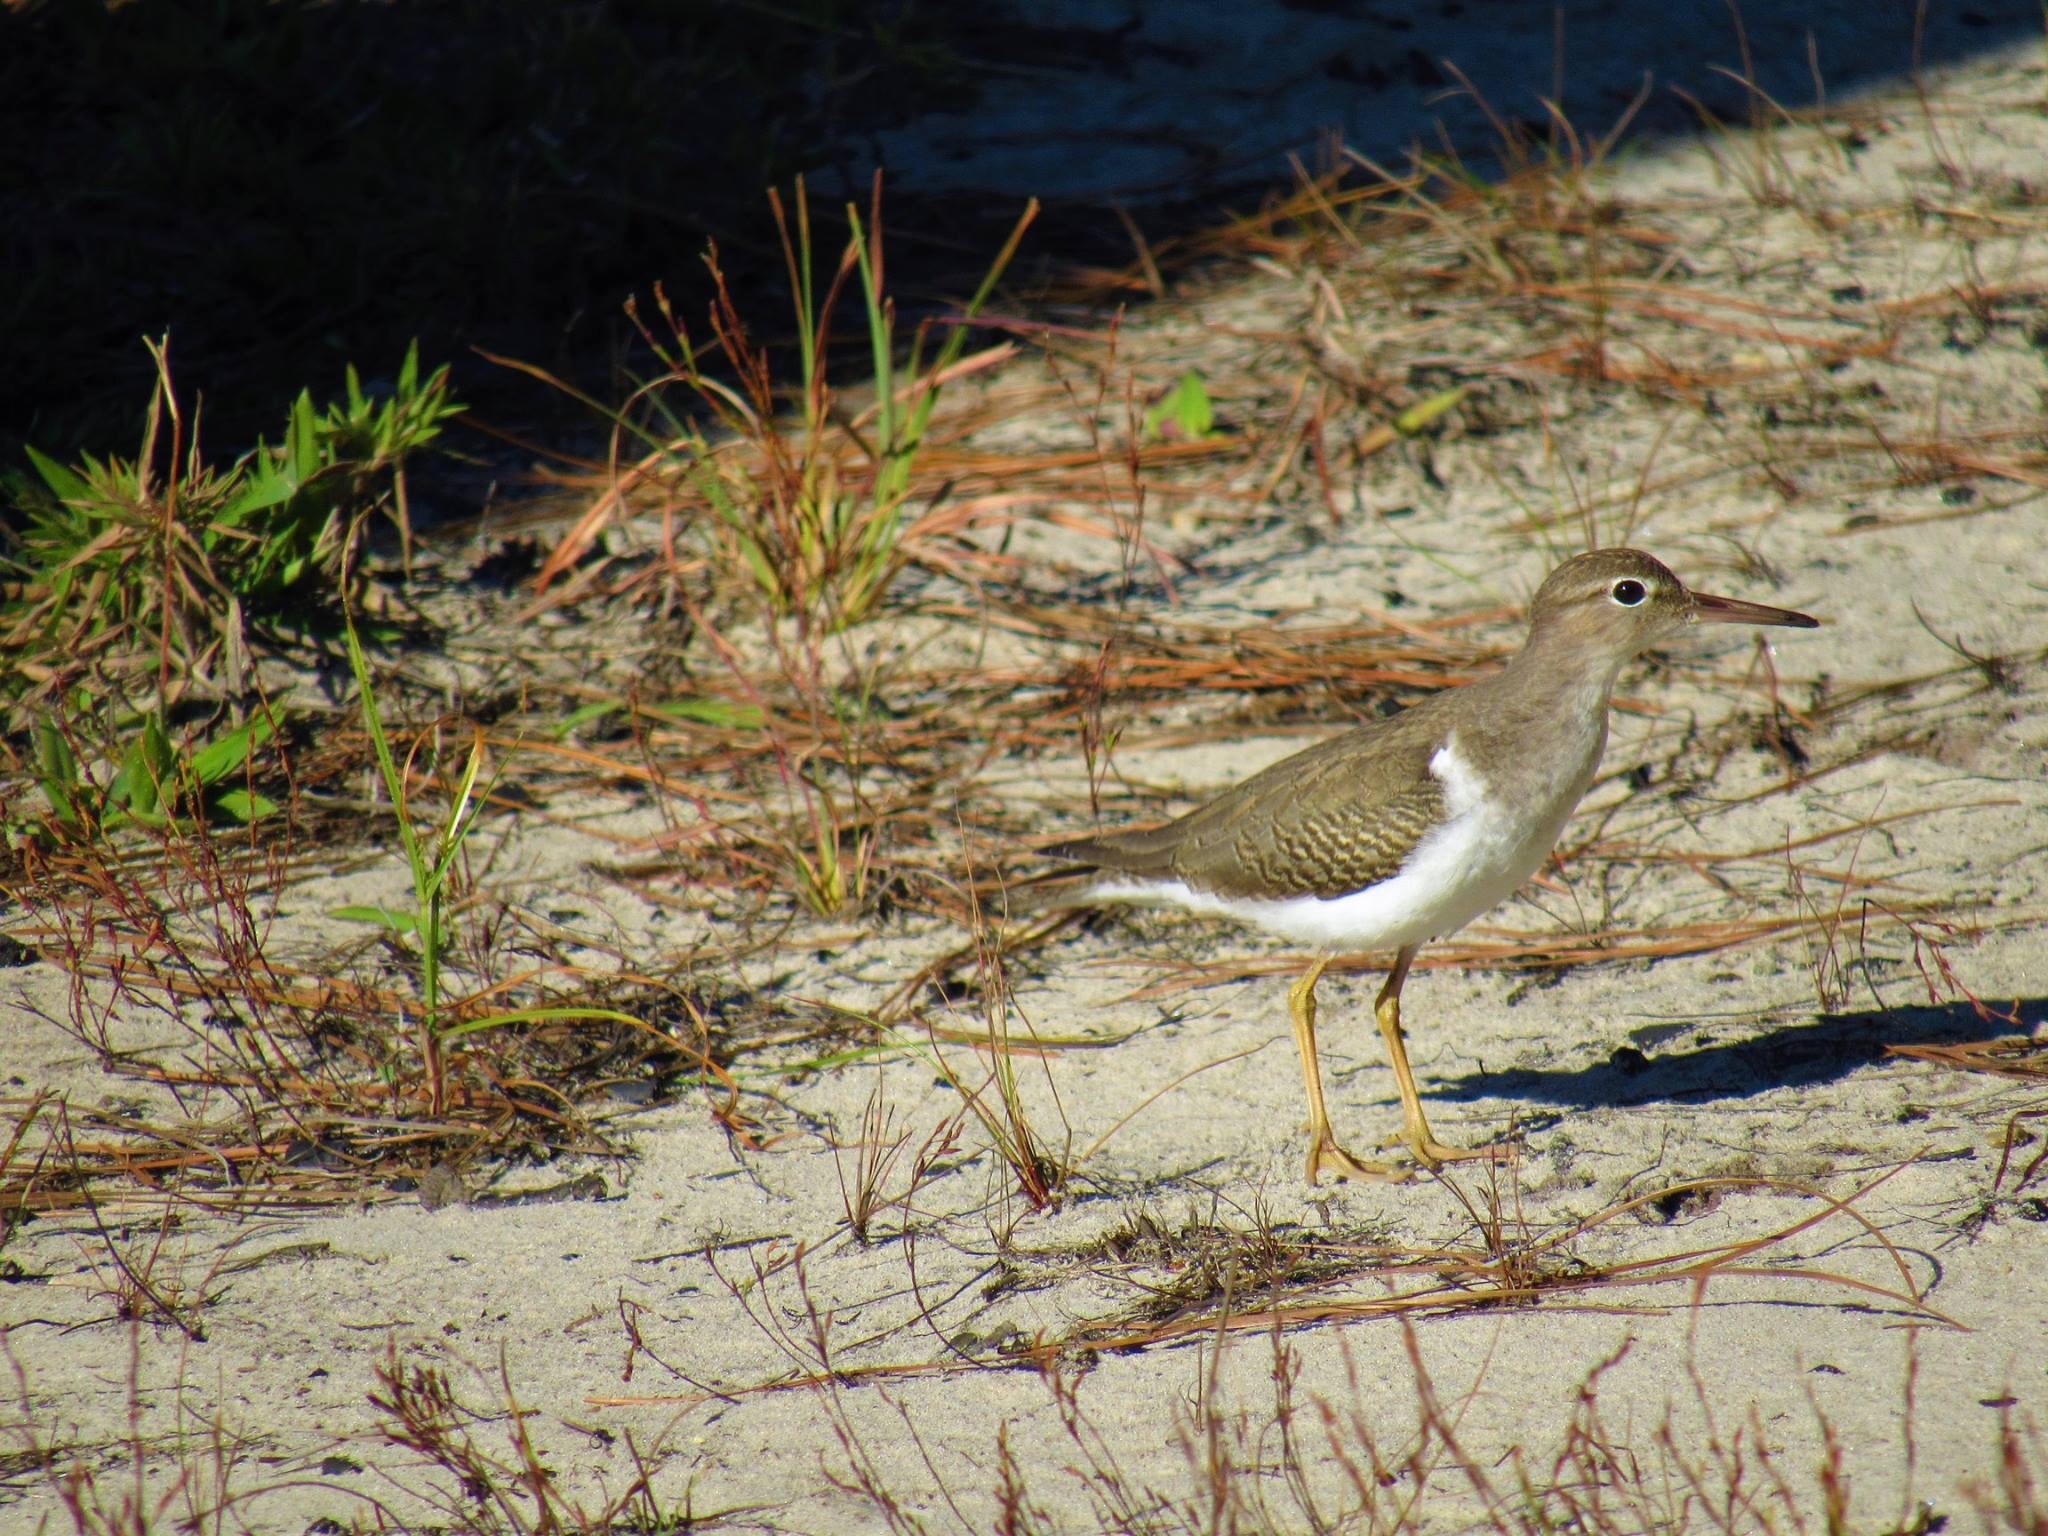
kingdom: Animalia
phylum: Chordata
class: Aves
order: Charadriiformes
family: Scolopacidae
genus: Actitis
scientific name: Actitis macularius
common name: Spotted sandpiper
